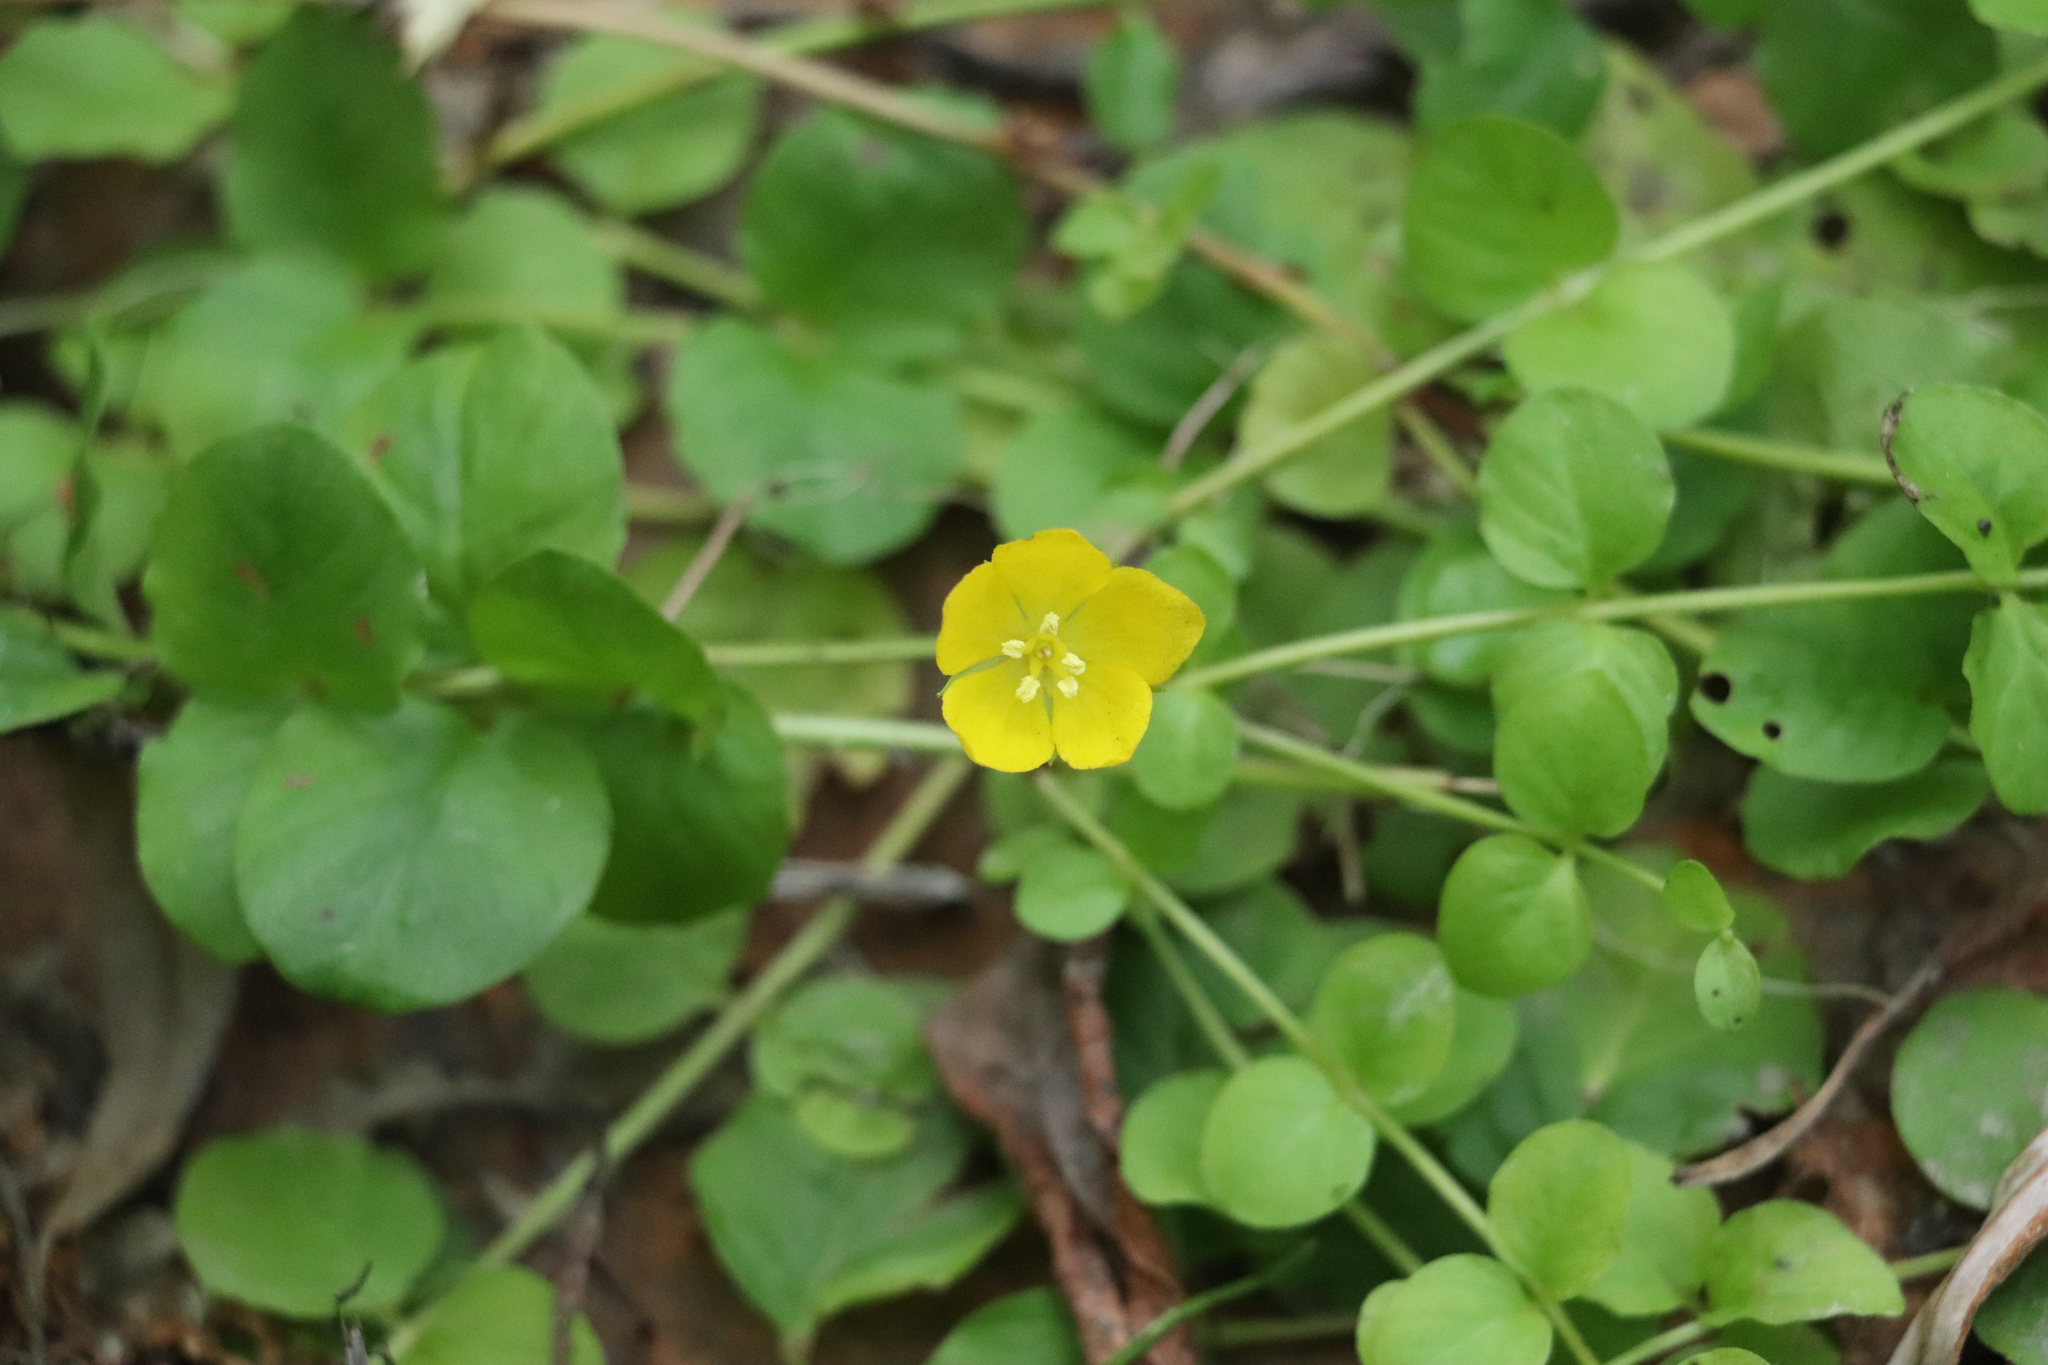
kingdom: Plantae
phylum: Tracheophyta
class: Magnoliopsida
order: Ericales
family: Primulaceae
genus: Lysimachia
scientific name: Lysimachia nummularia
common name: Moneywort
